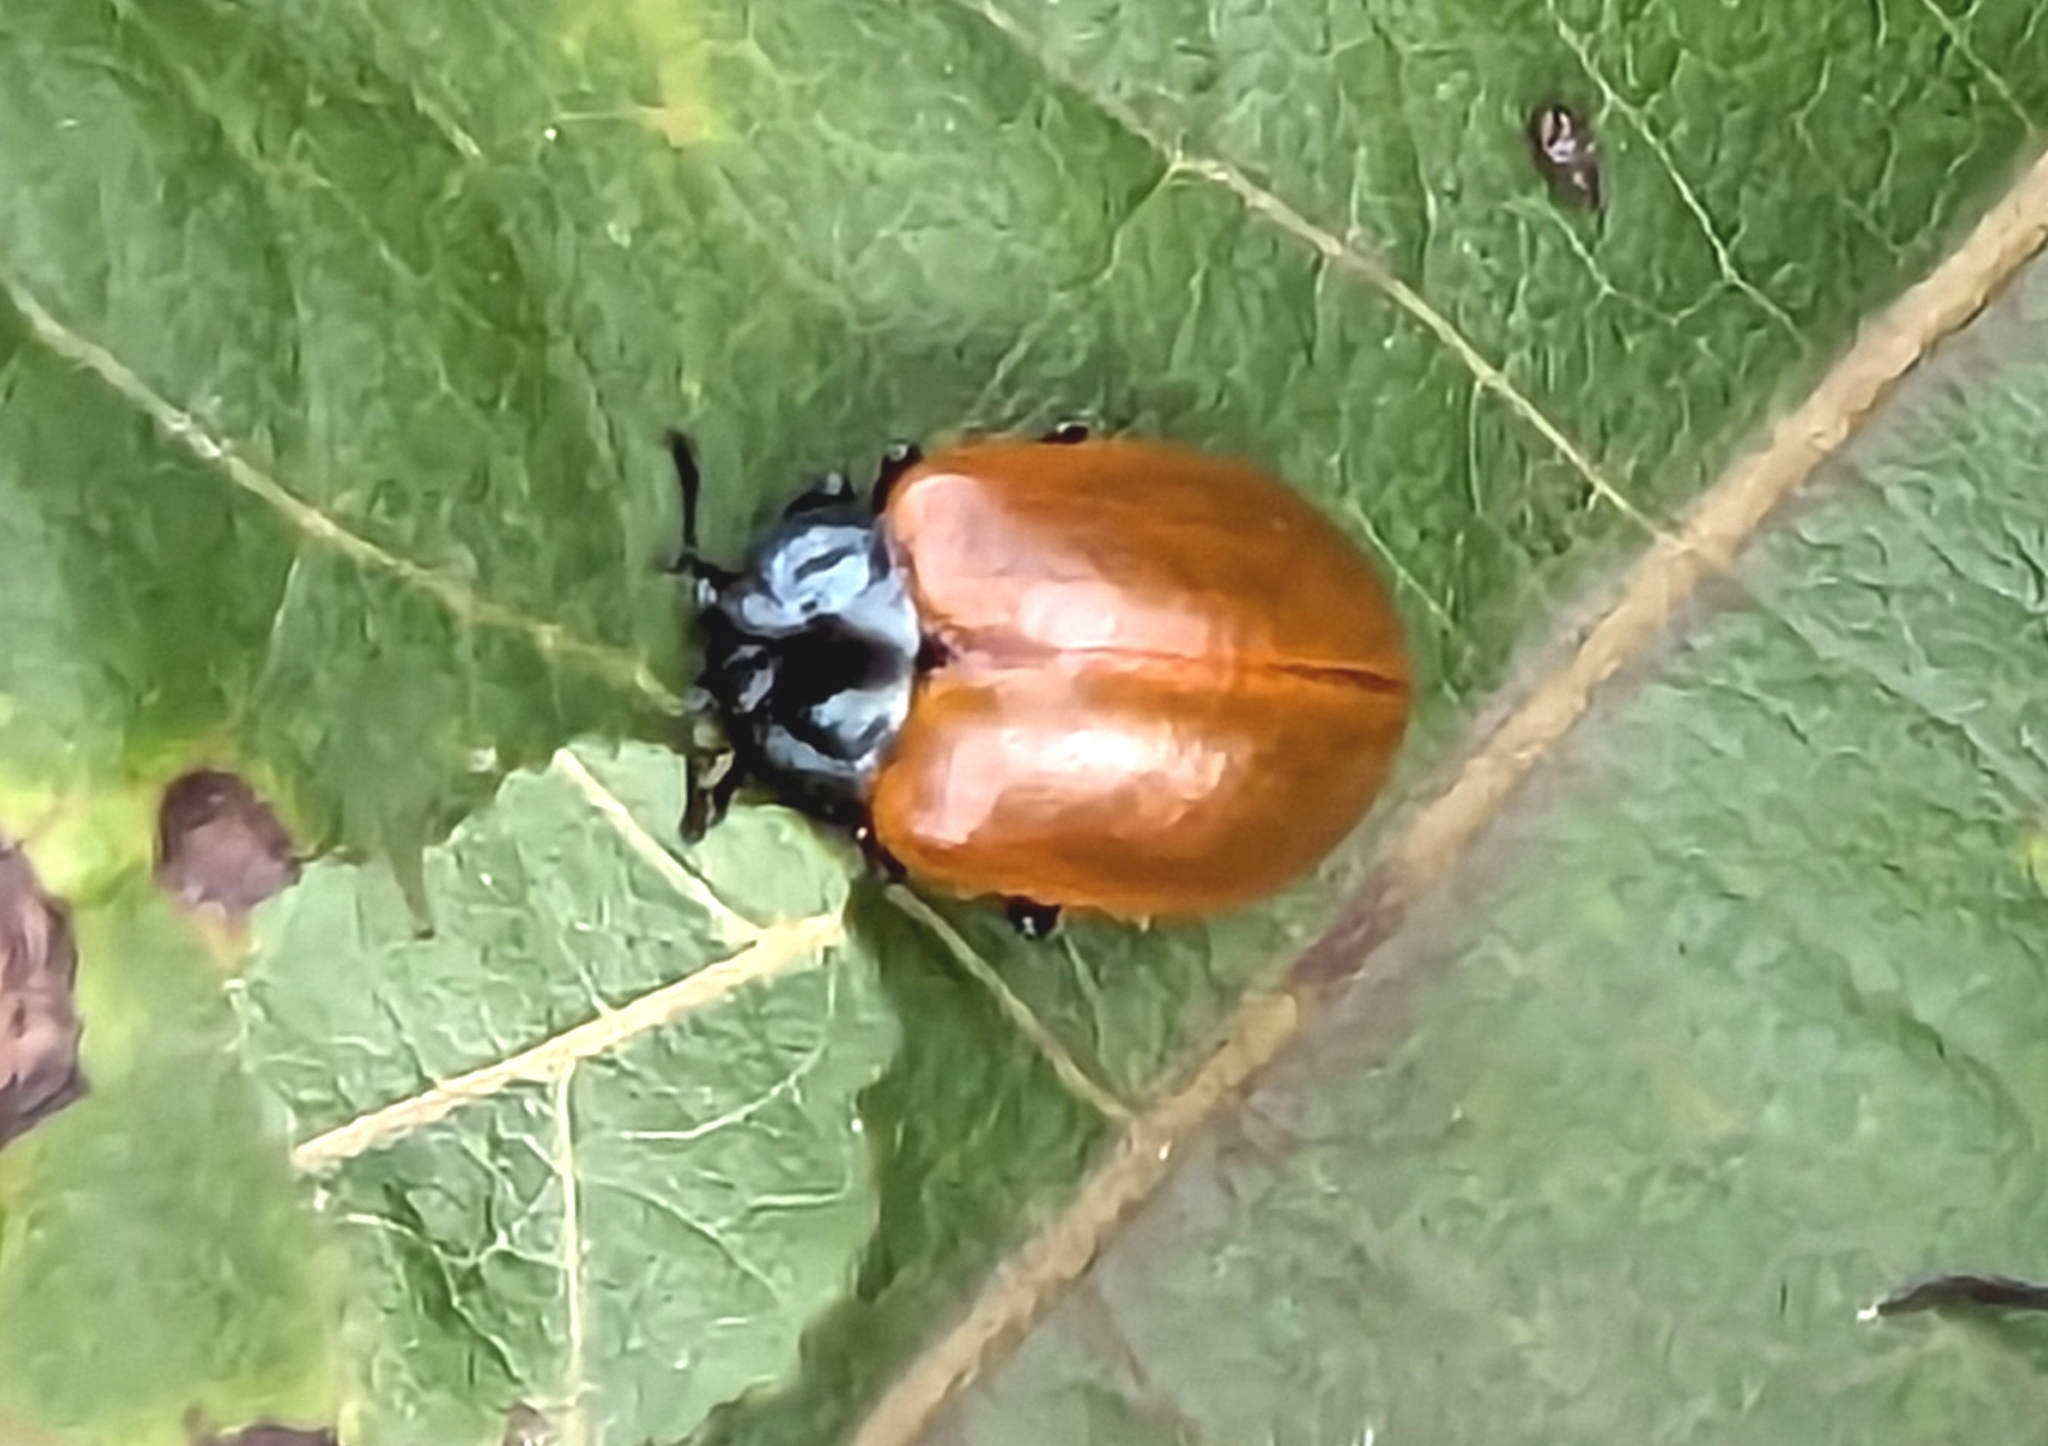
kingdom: Animalia
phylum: Arthropoda
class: Insecta
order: Coleoptera
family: Chrysomelidae
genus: Chrysomela
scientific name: Chrysomela populi
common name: Red poplar leaf beetle
